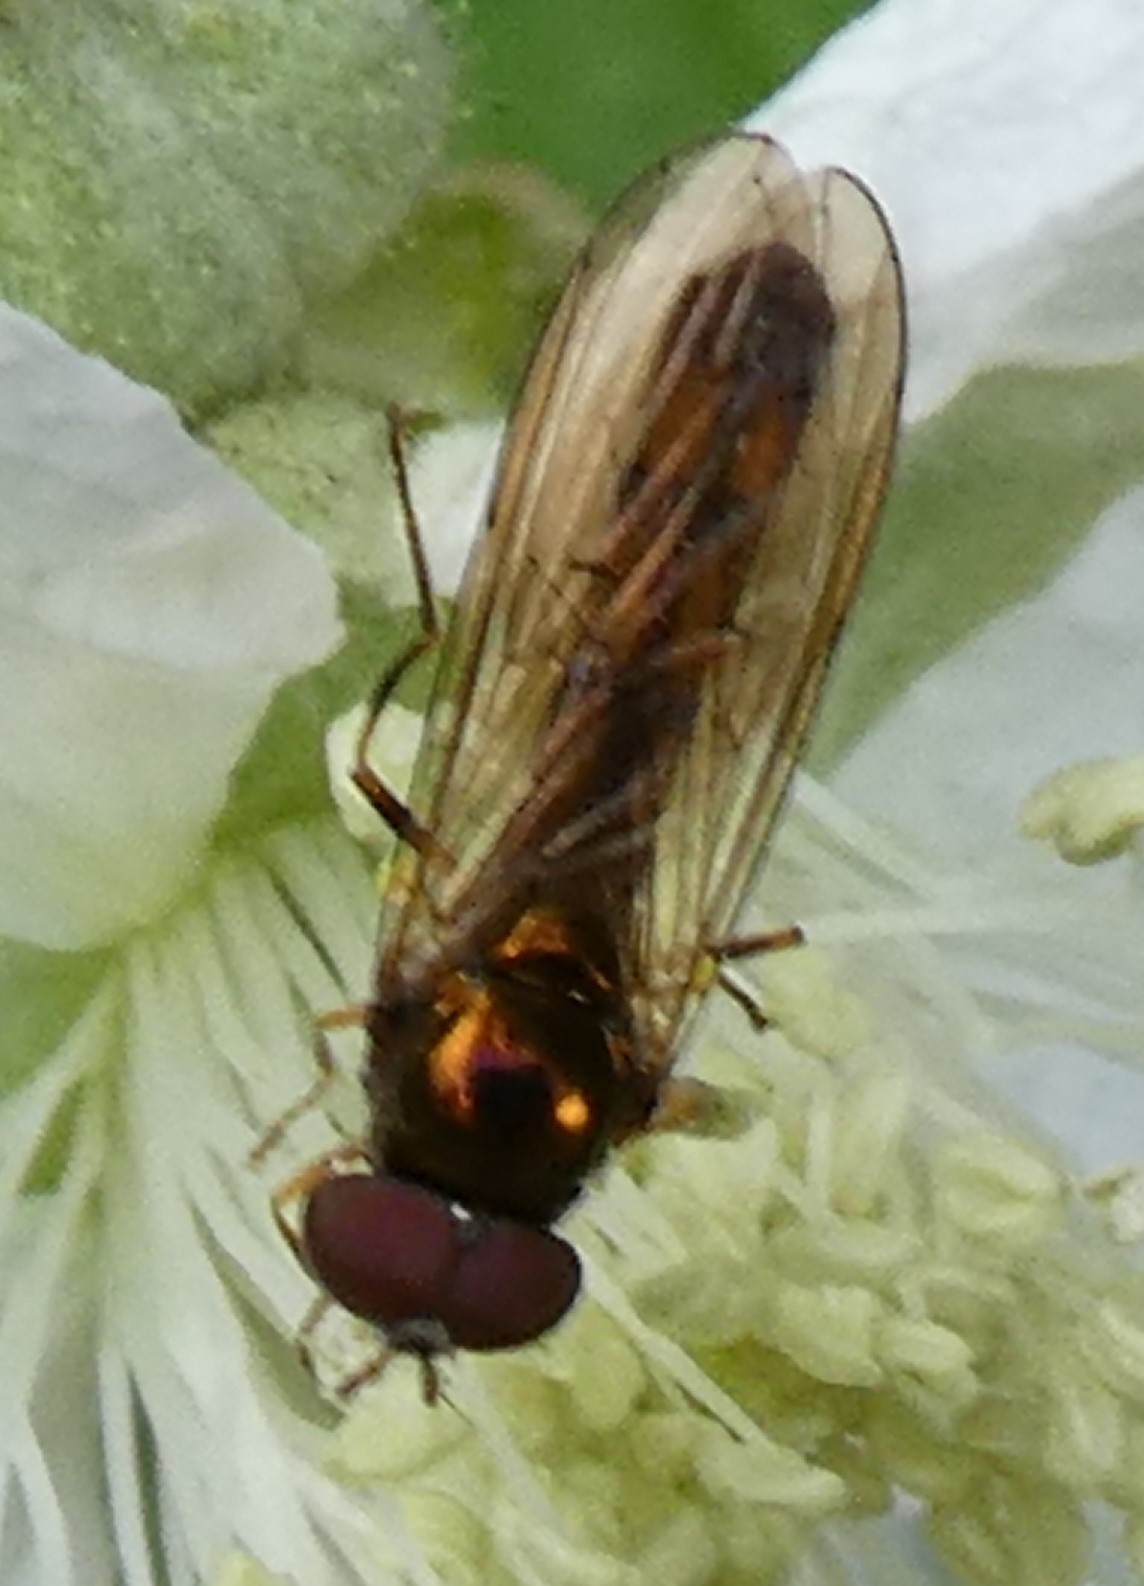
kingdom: Animalia
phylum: Arthropoda
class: Insecta
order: Diptera
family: Syrphidae
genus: Melanostoma
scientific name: Melanostoma scalare
